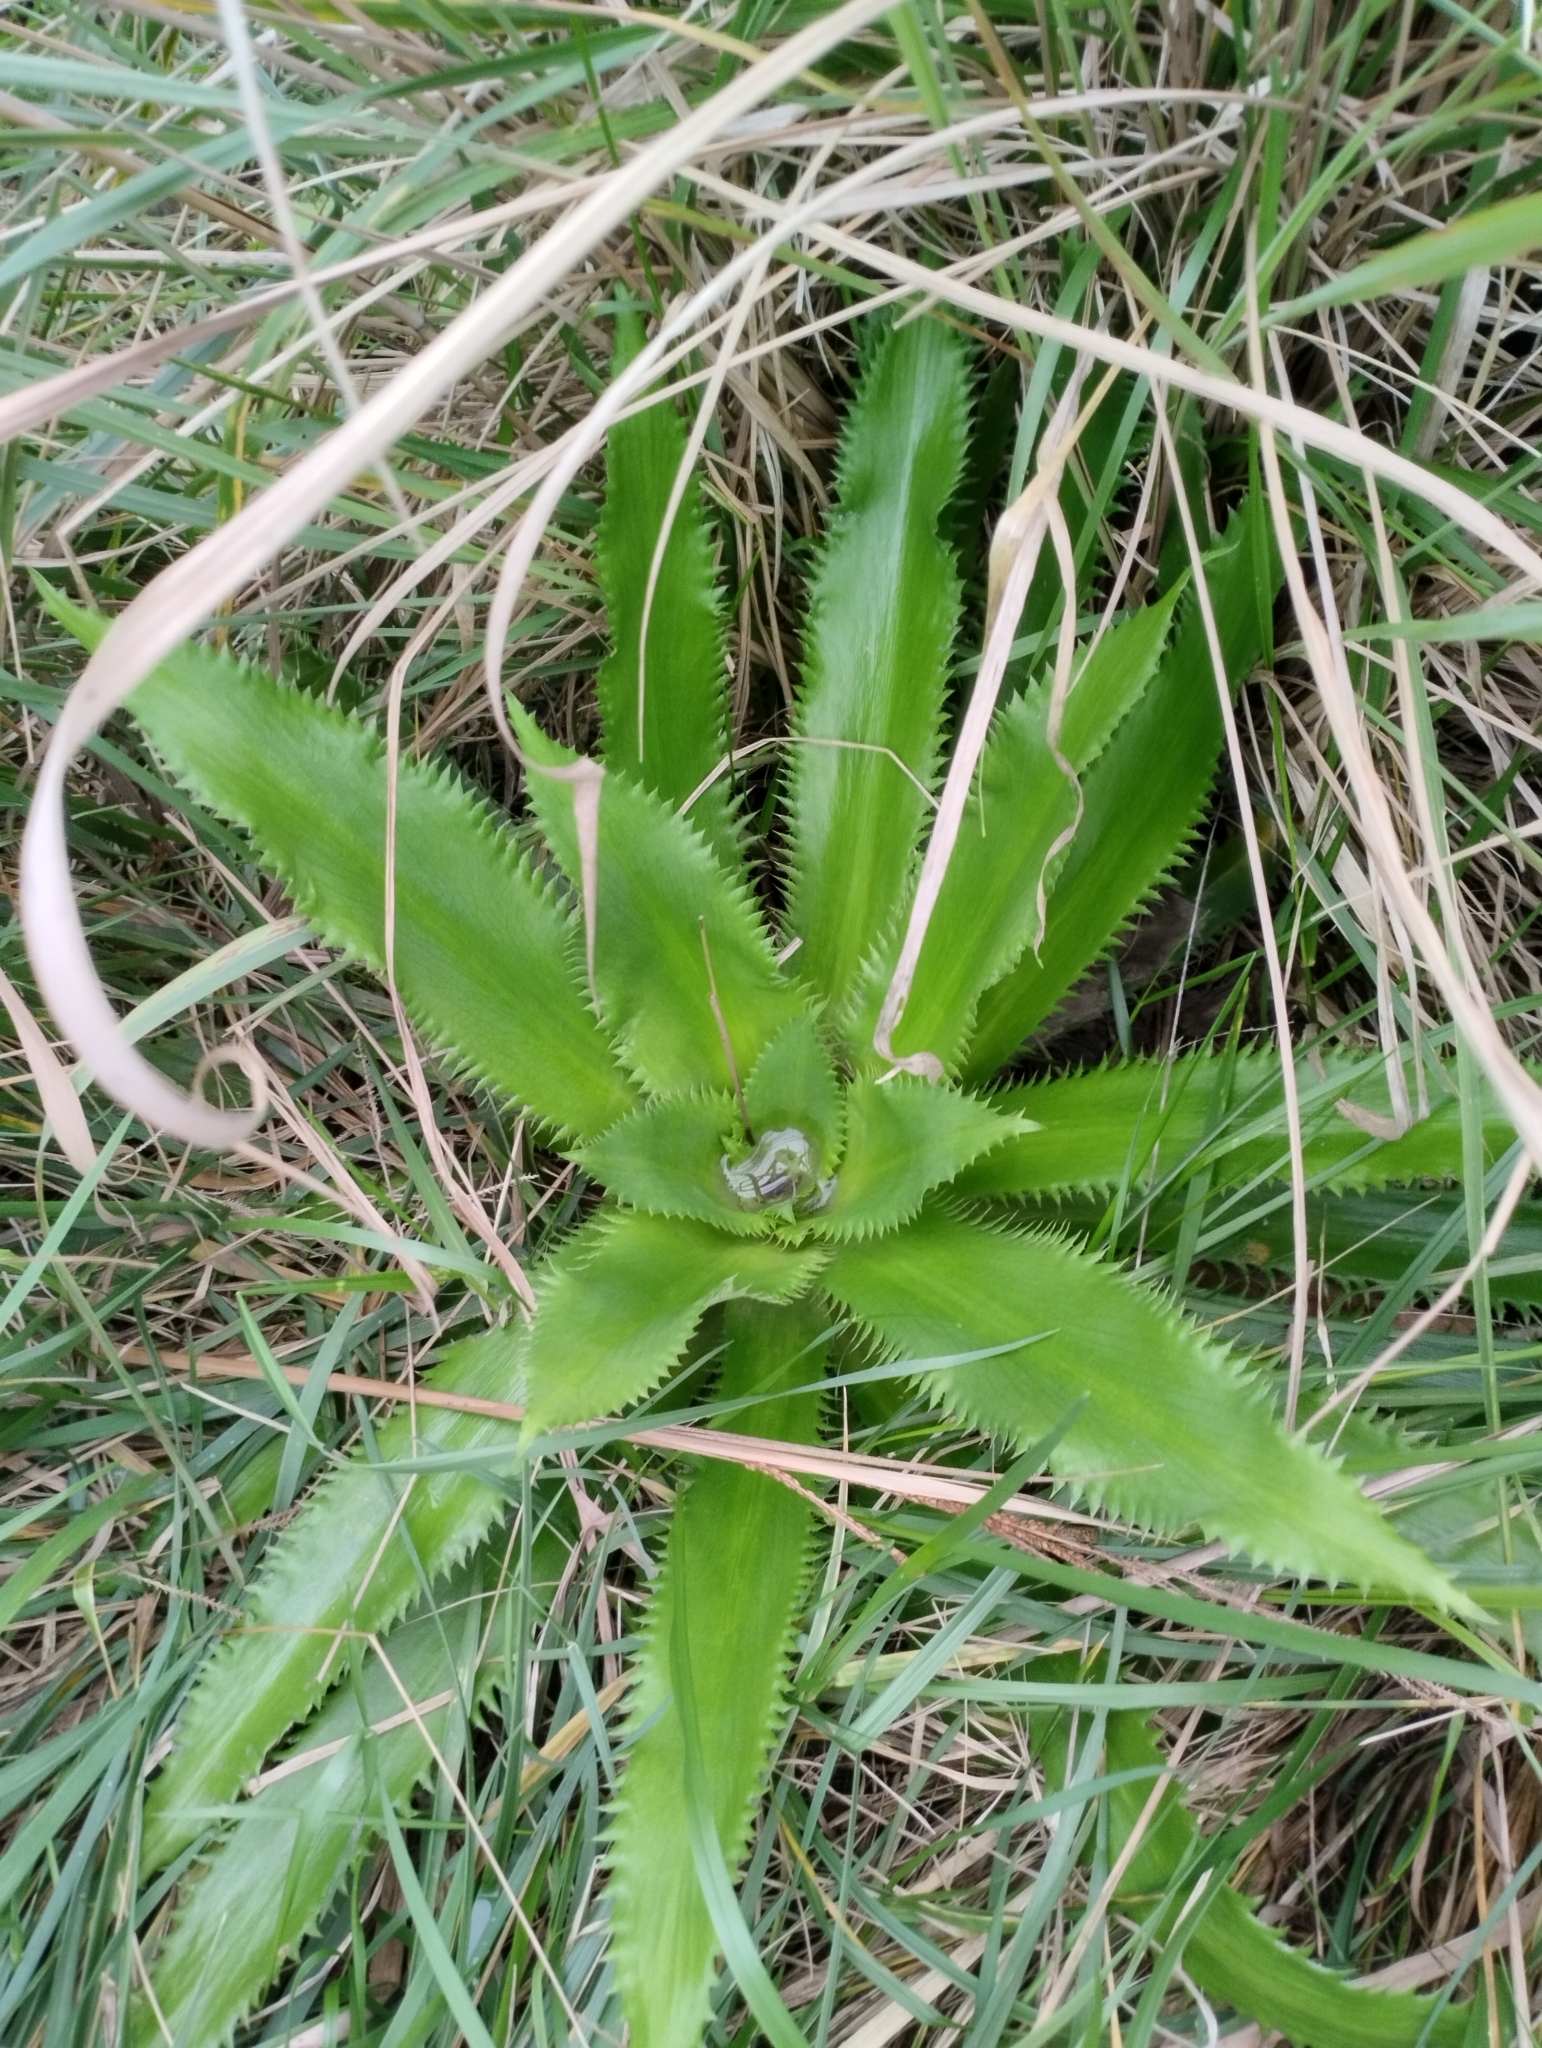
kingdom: Plantae
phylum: Tracheophyta
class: Magnoliopsida
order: Apiales
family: Apiaceae
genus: Eryngium
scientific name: Eryngium elegans
